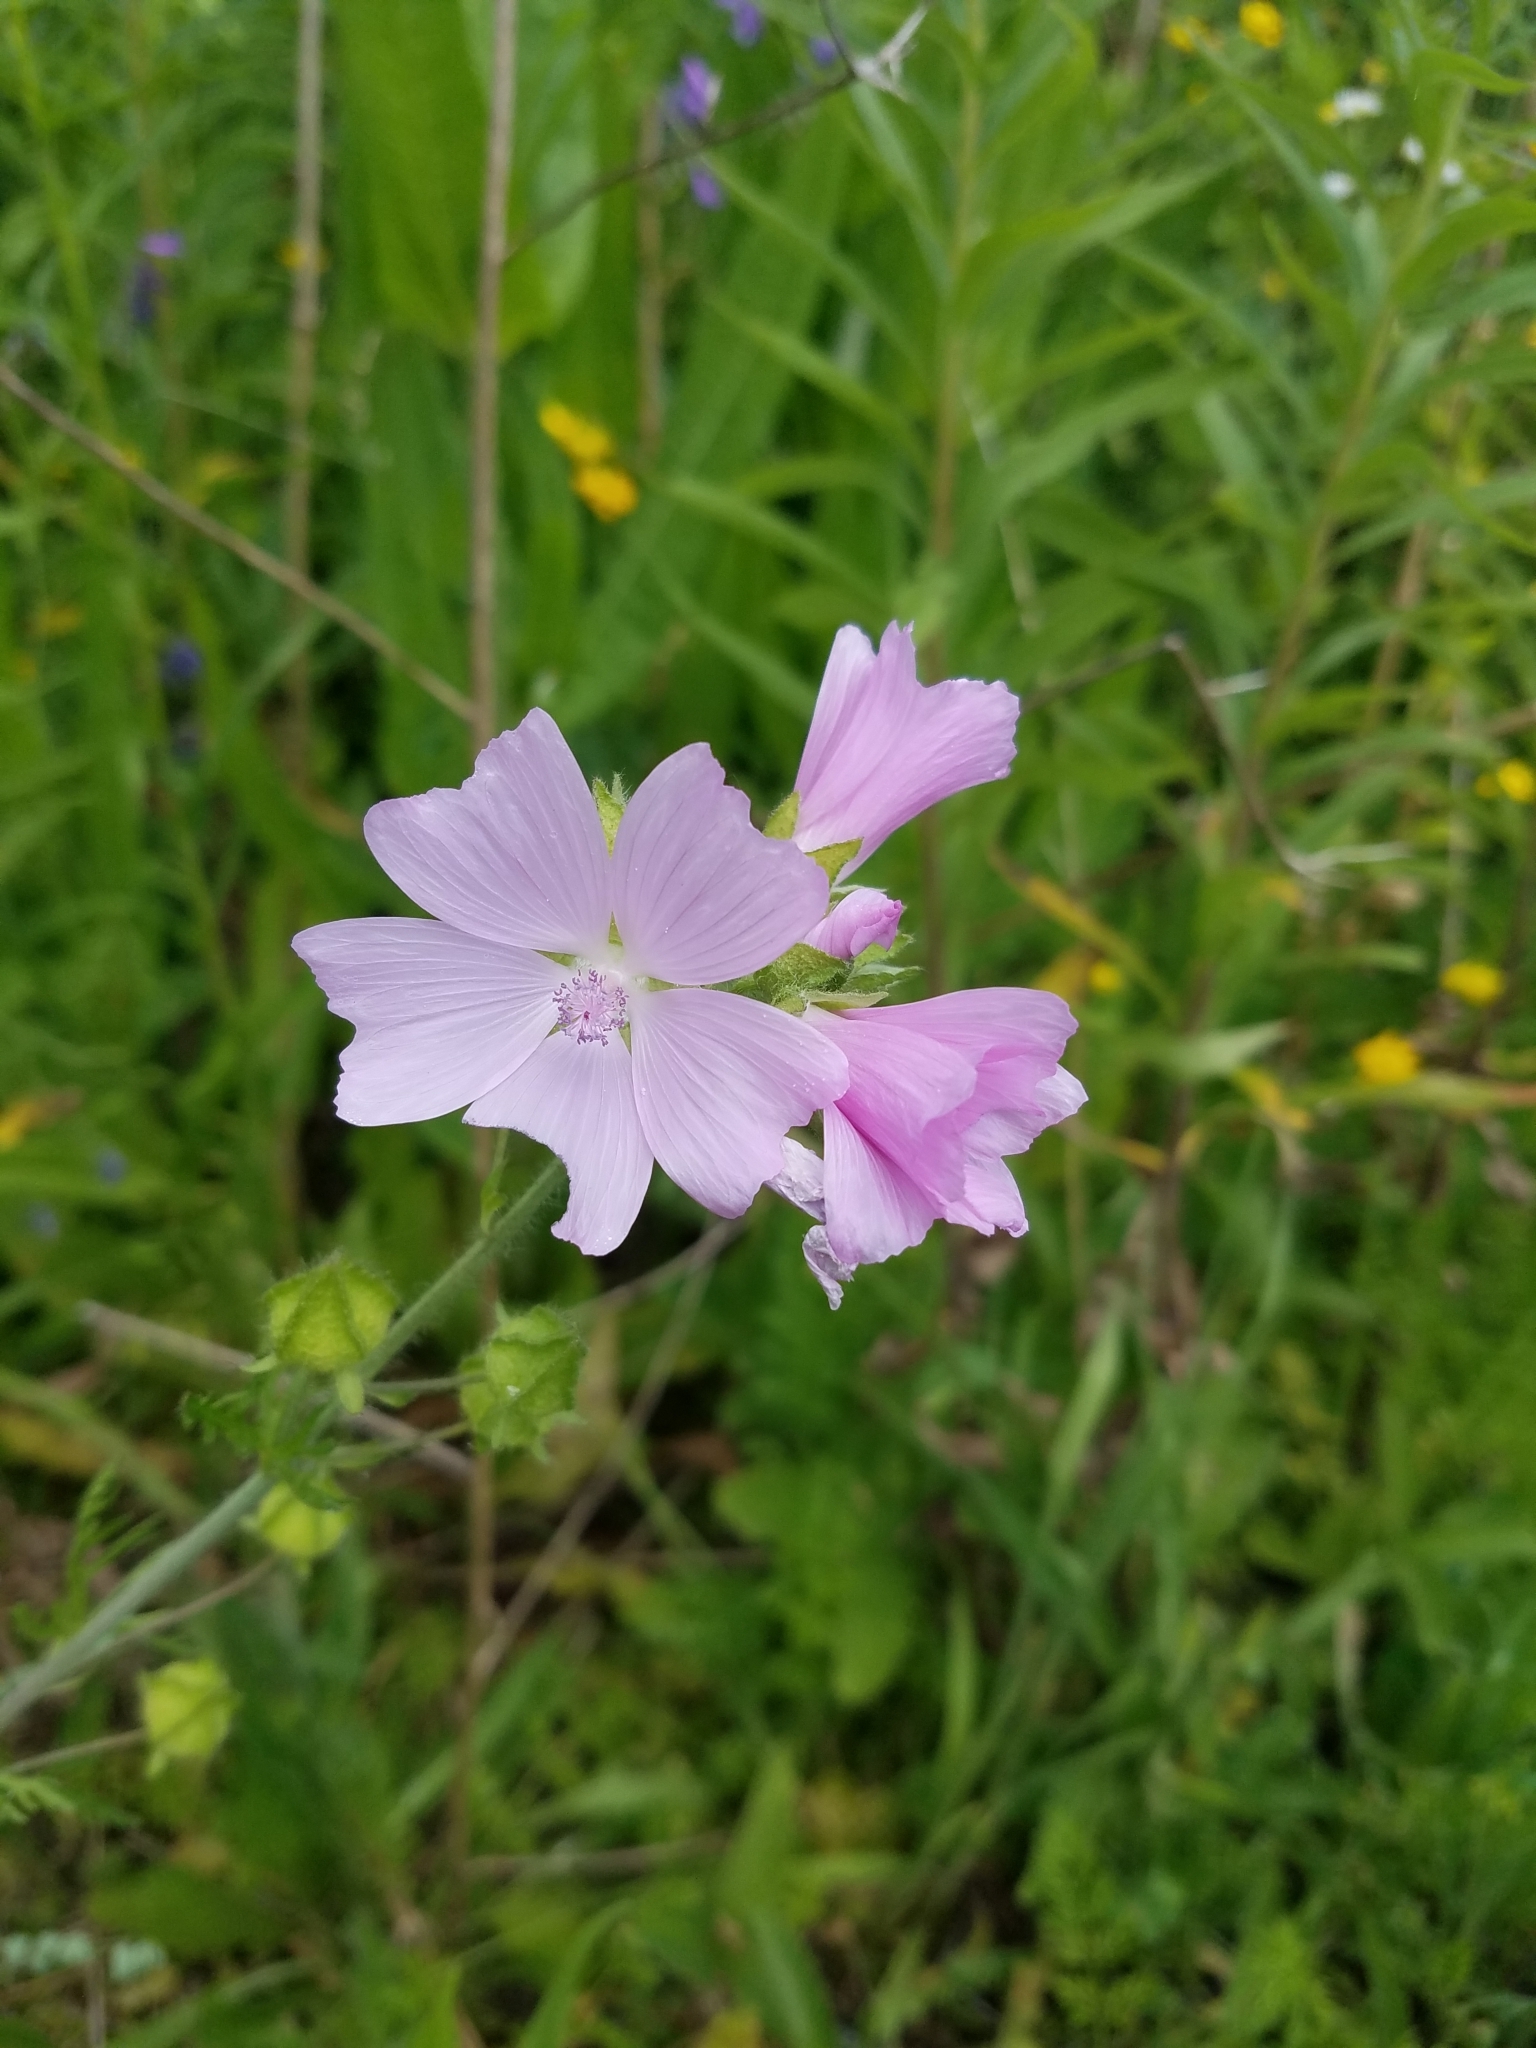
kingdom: Plantae
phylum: Tracheophyta
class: Magnoliopsida
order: Malvales
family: Malvaceae
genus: Malva
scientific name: Malva moschata
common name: Musk mallow
